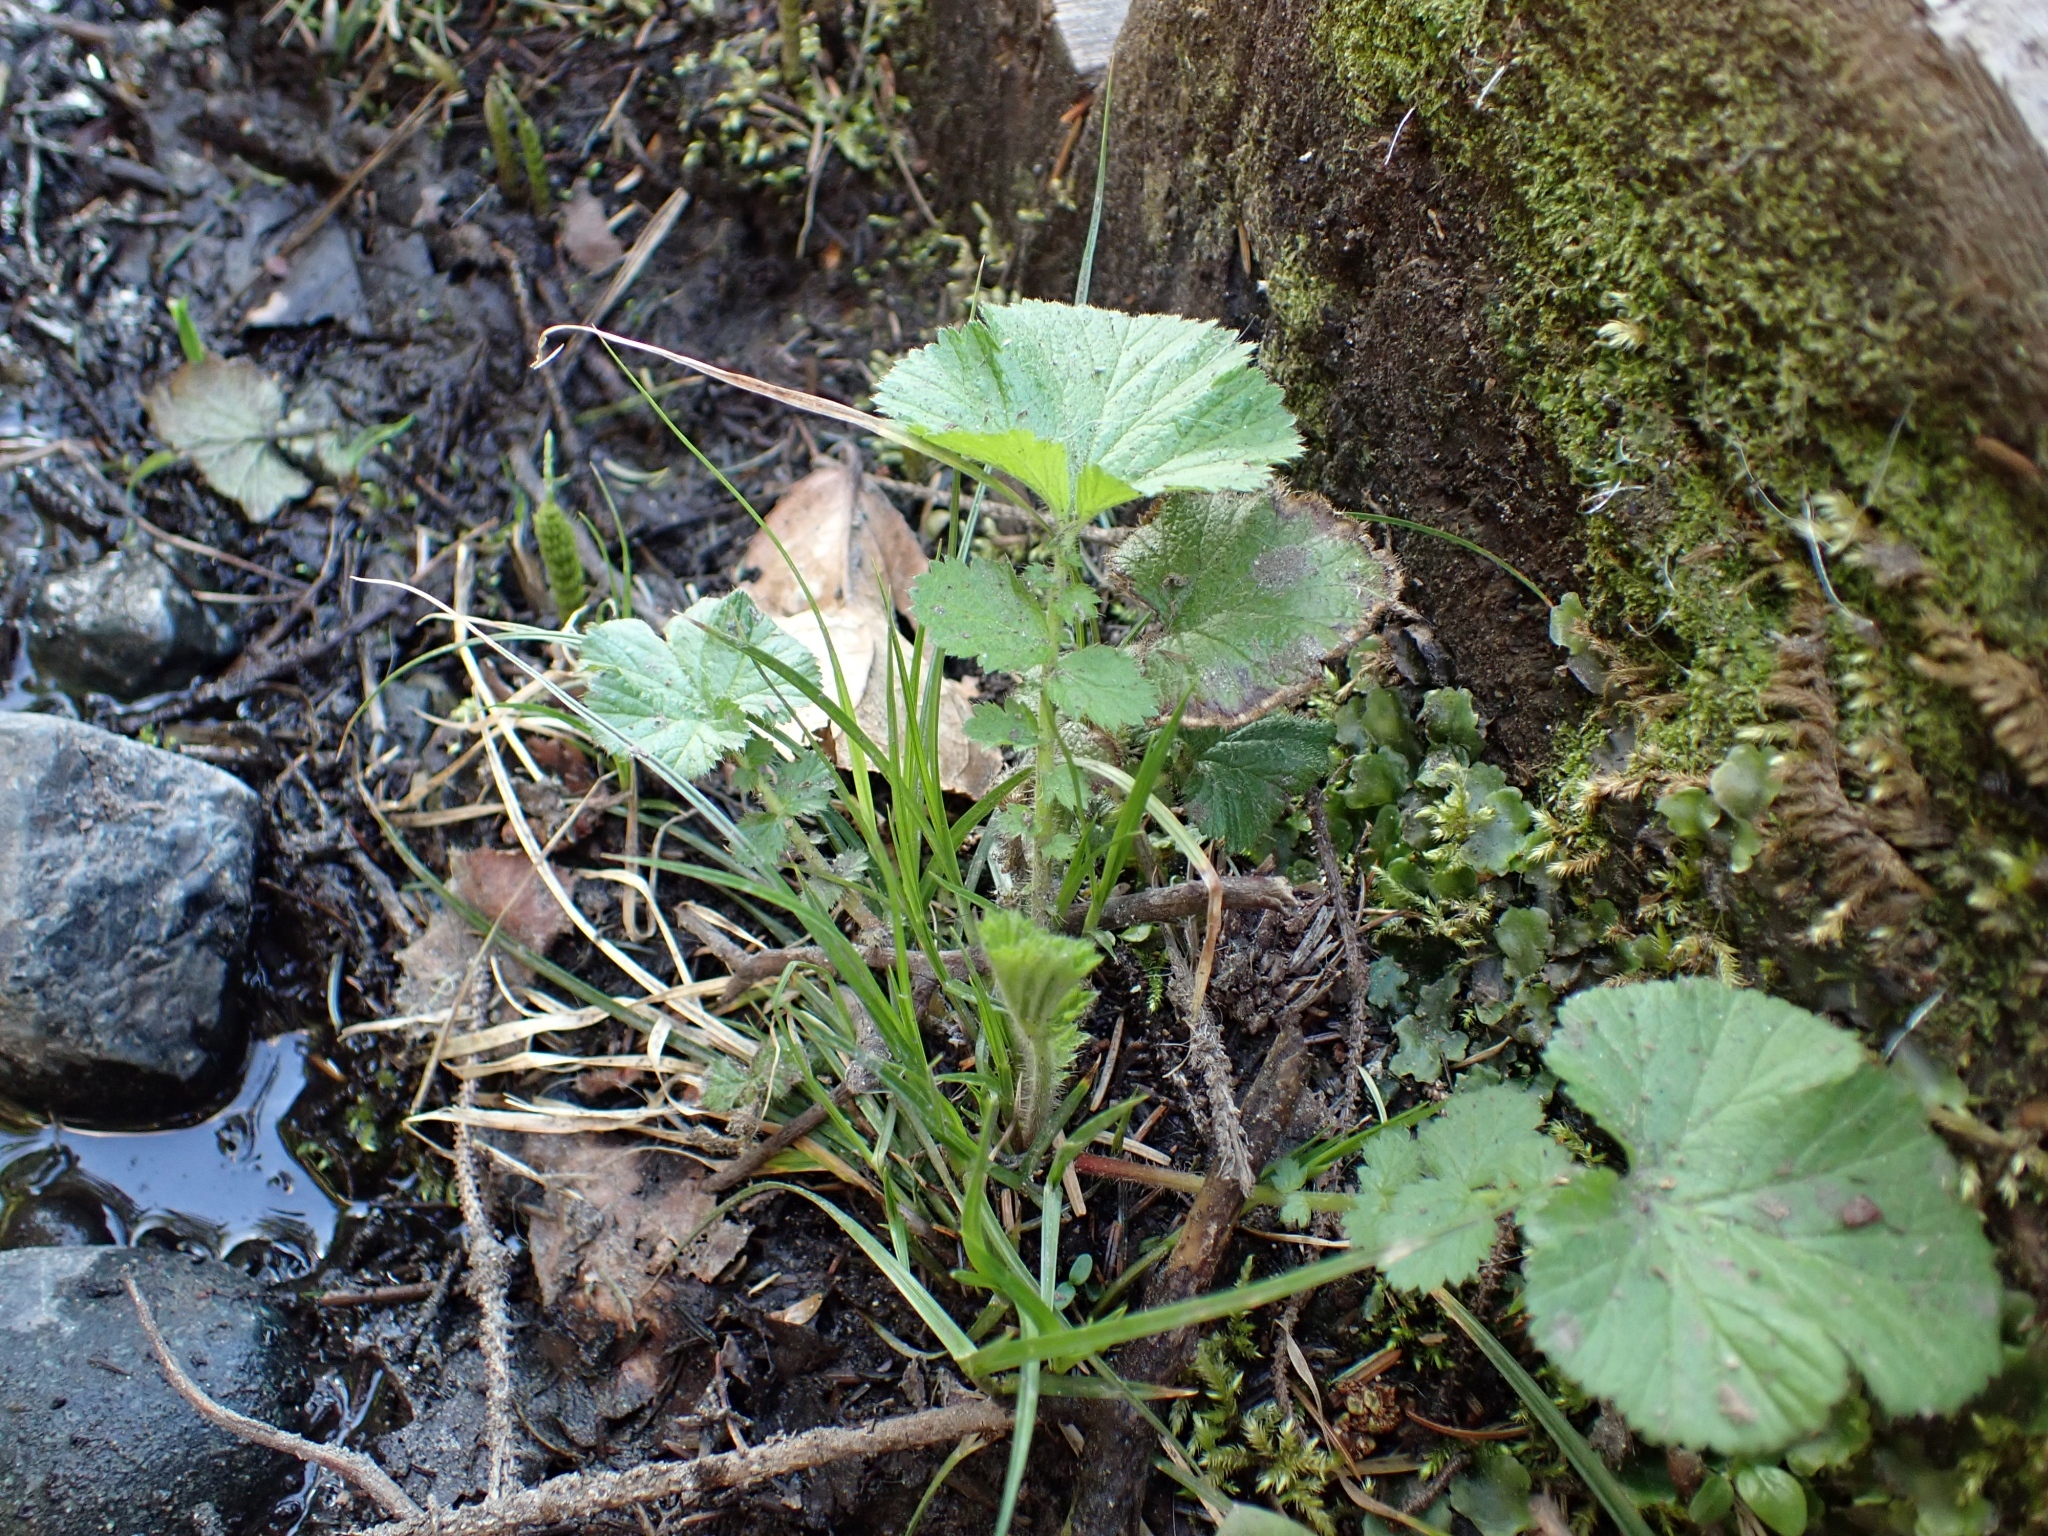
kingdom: Plantae
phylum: Tracheophyta
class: Magnoliopsida
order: Rosales
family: Rosaceae
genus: Geum
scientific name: Geum macrophyllum
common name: Large-leaved avens
